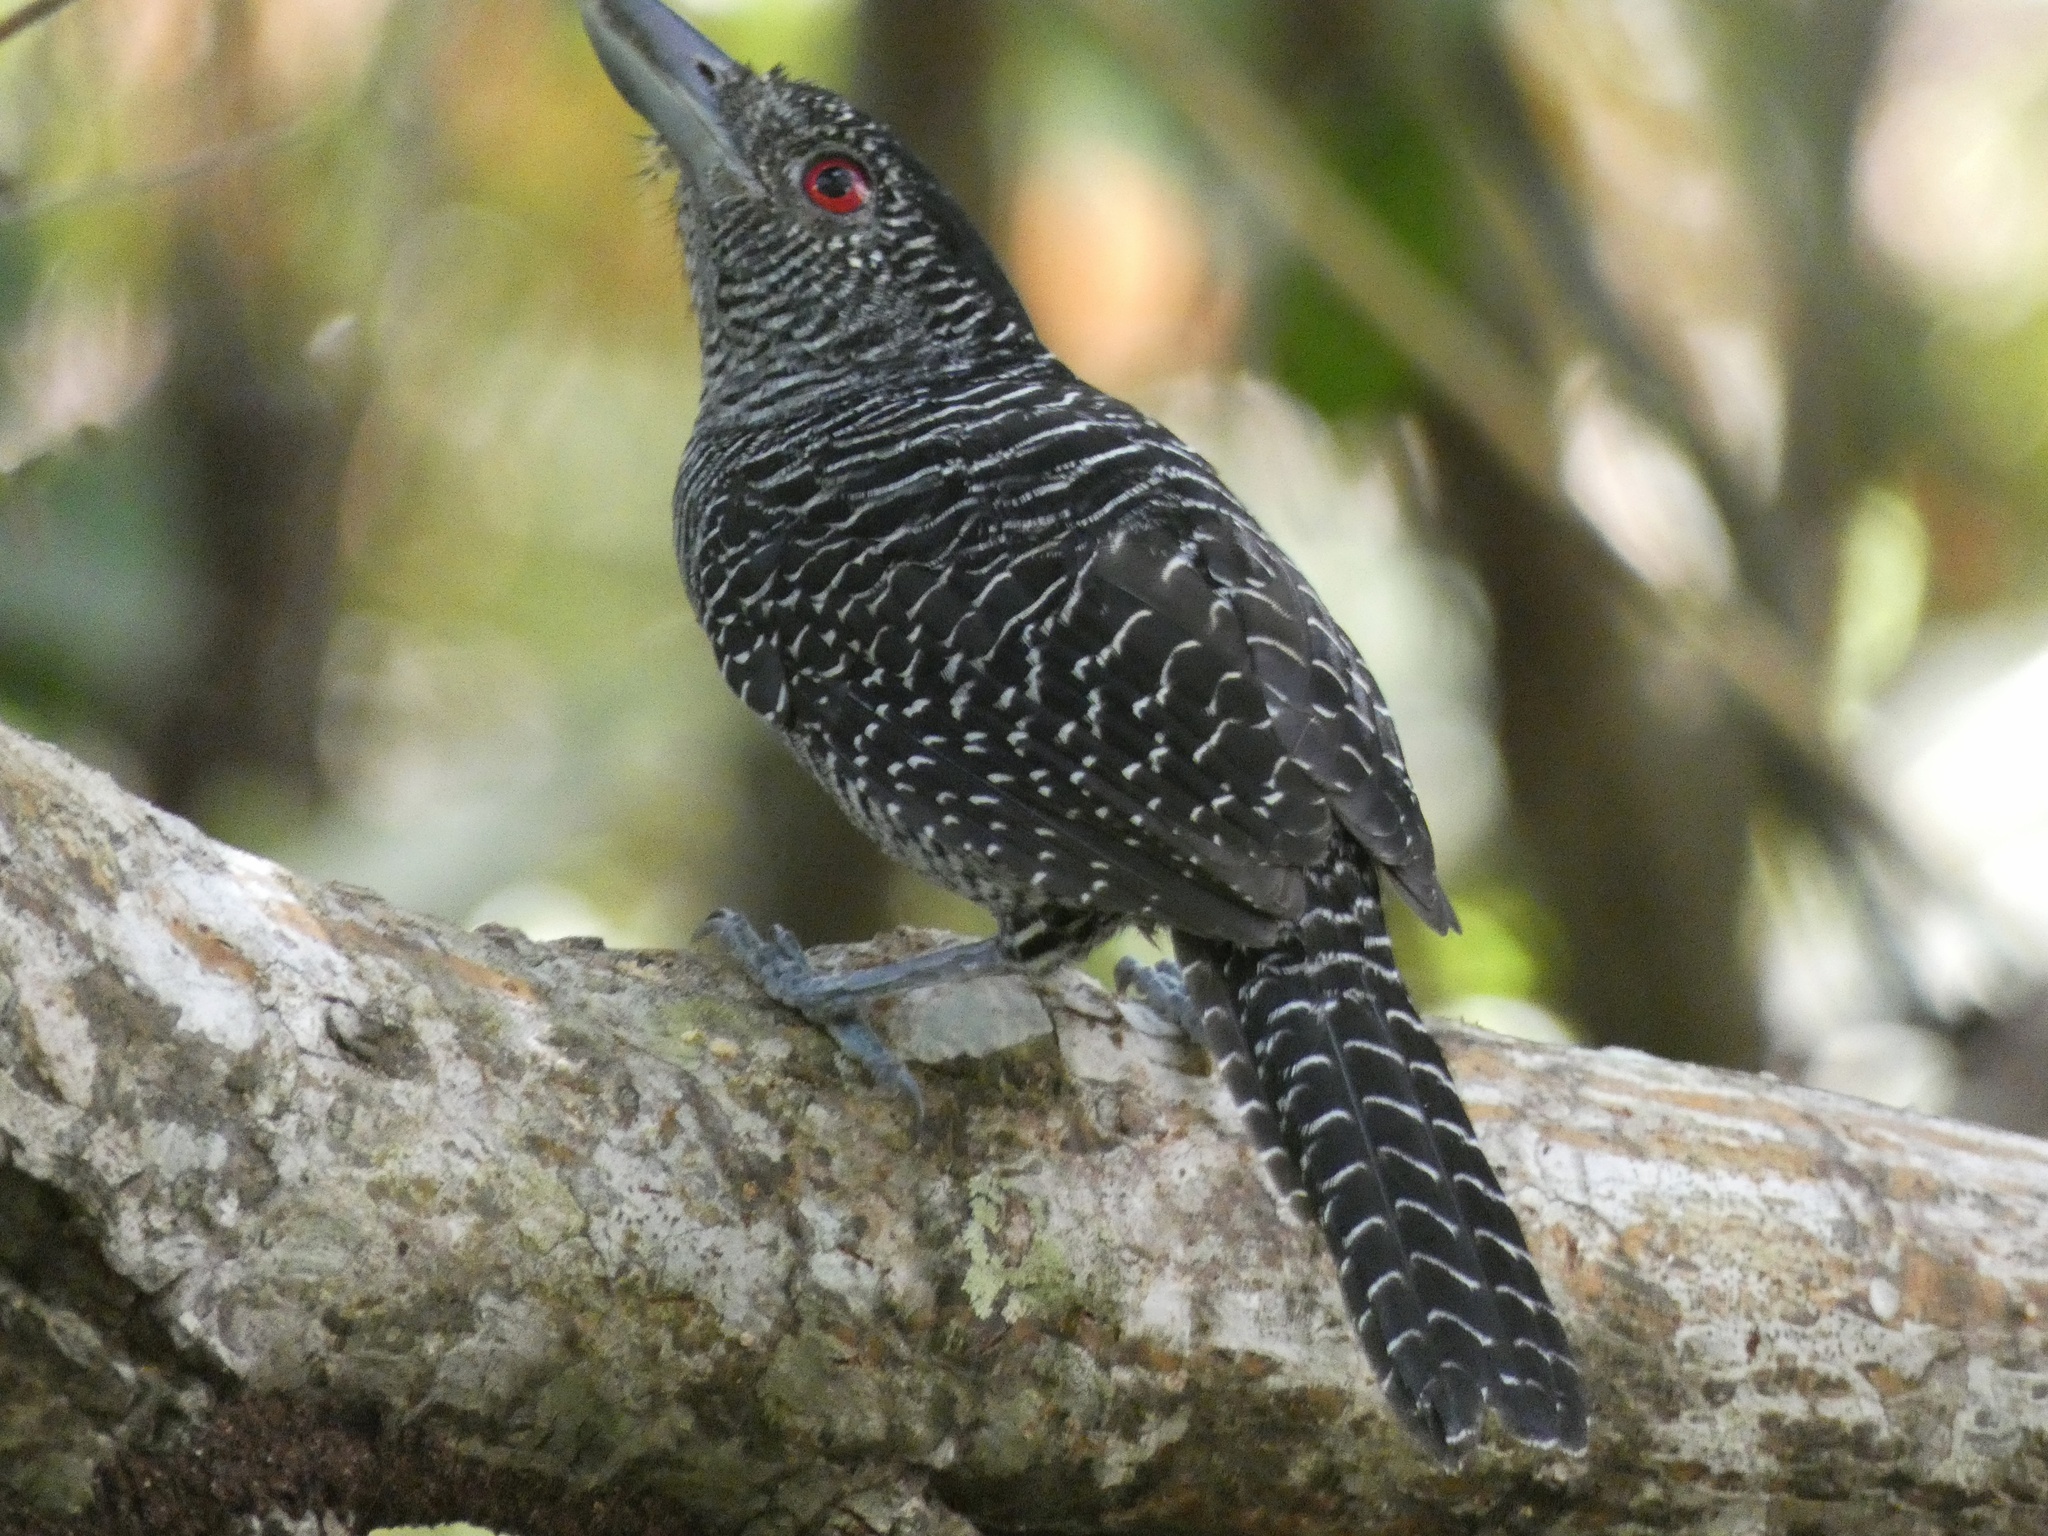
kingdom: Animalia
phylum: Chordata
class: Aves
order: Passeriformes
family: Thamnophilidae
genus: Cymbilaimus
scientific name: Cymbilaimus lineatus
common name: Fasciated antshrike
